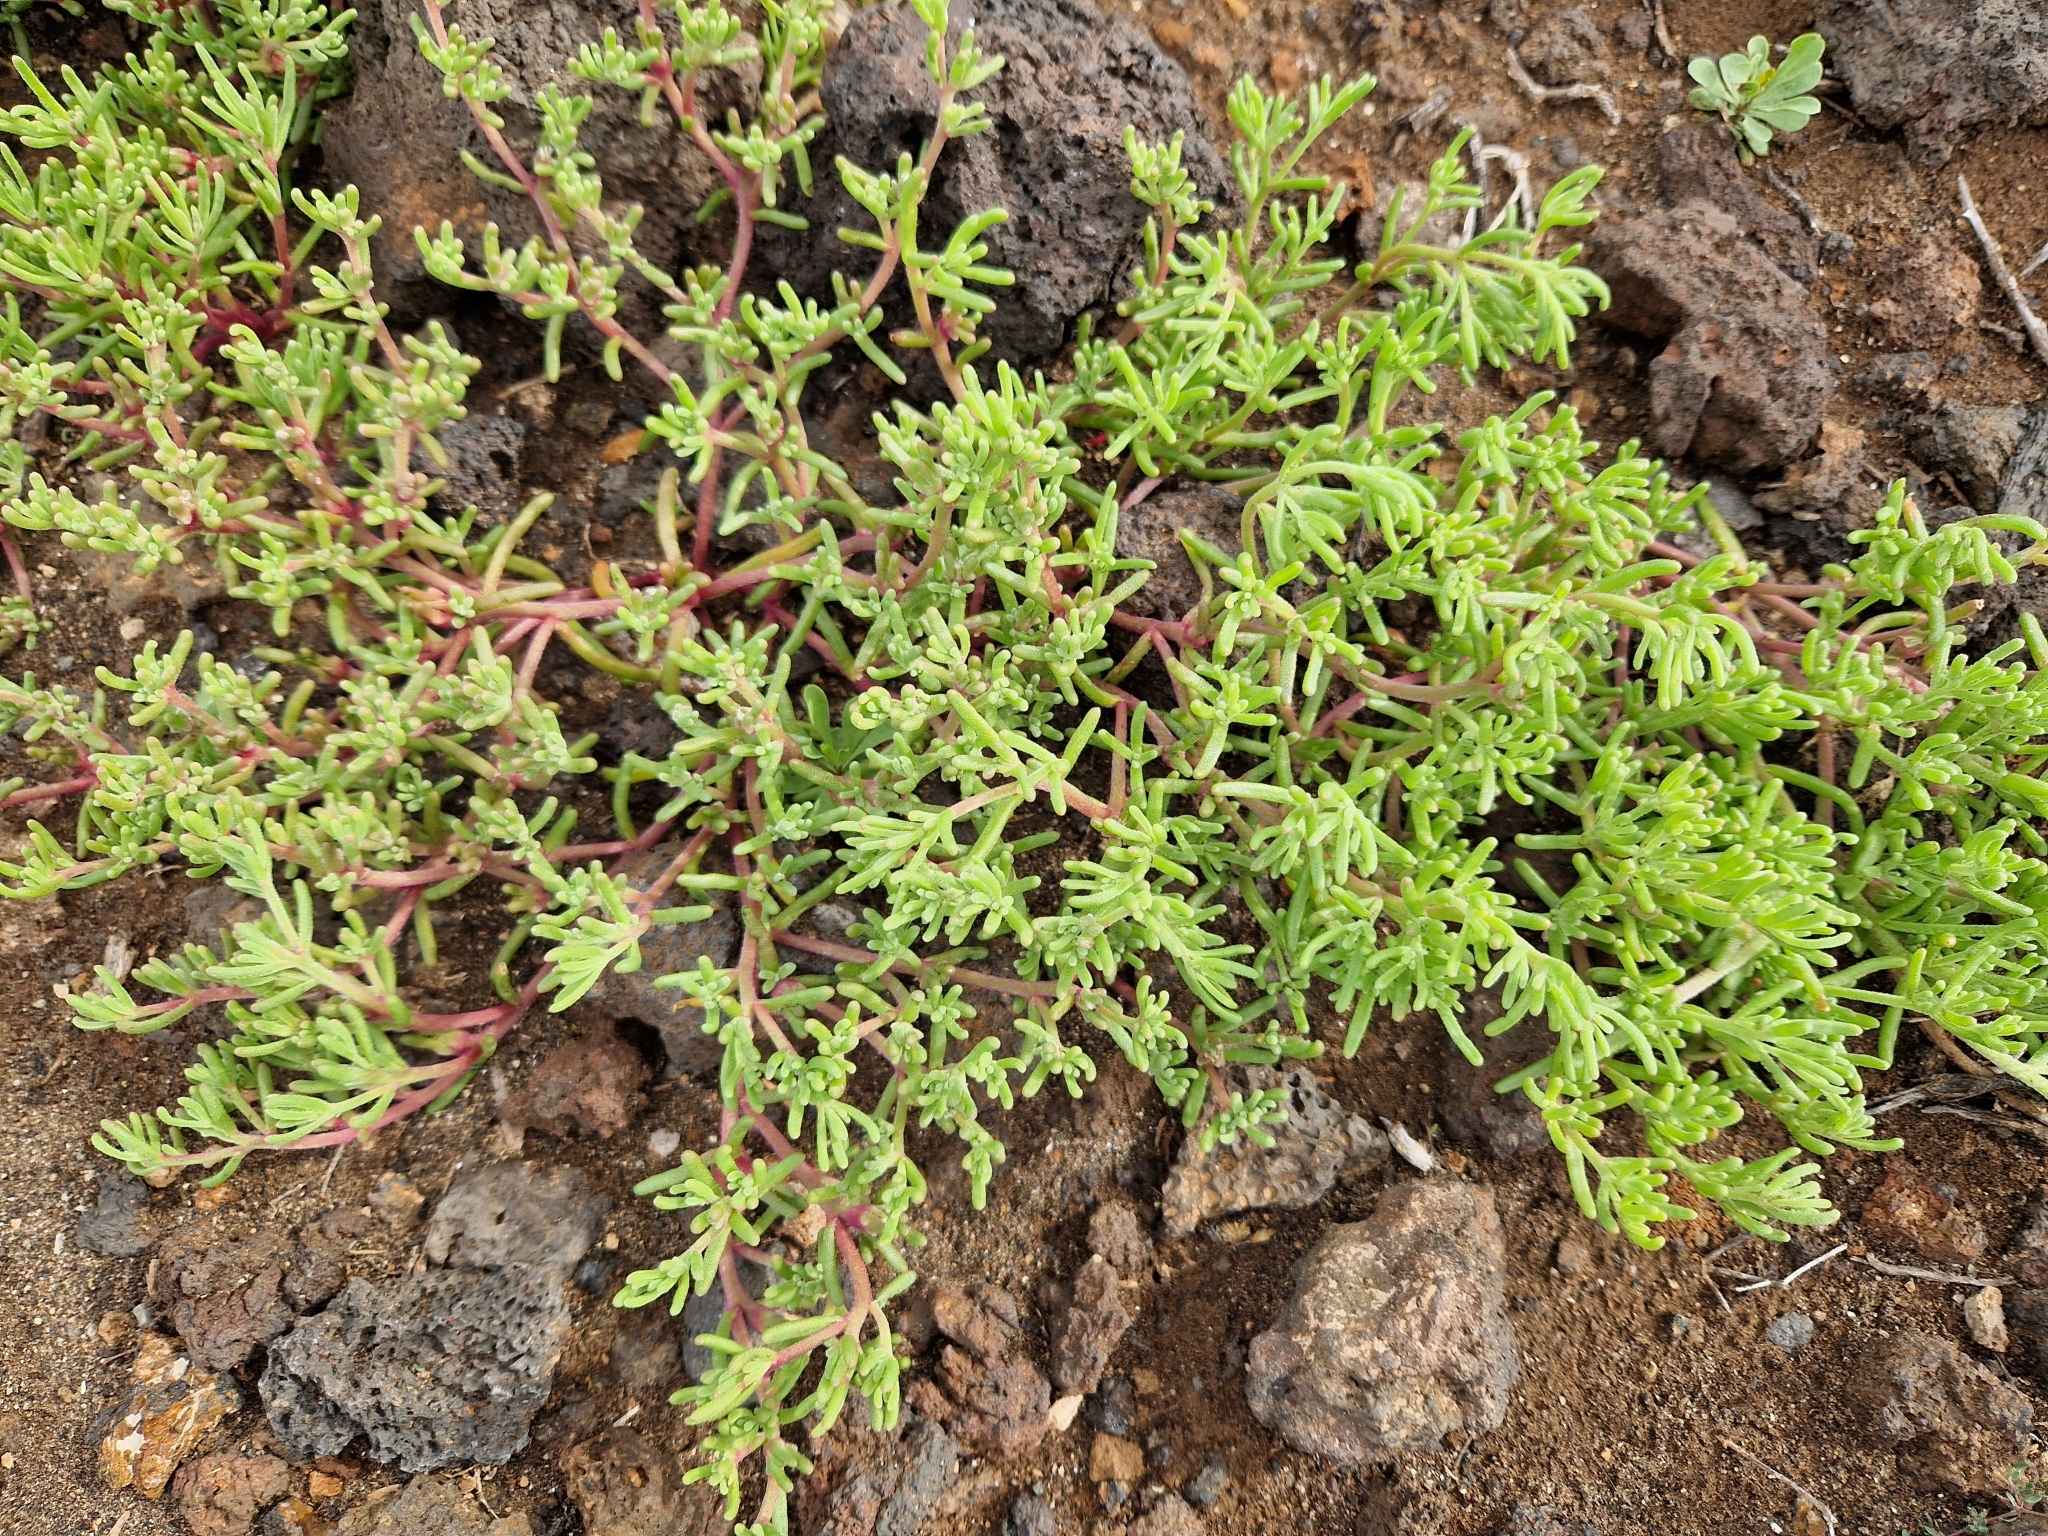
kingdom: Plantae
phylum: Tracheophyta
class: Magnoliopsida
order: Caryophyllales
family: Aizoaceae
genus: Mesembryanthemum
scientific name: Mesembryanthemum nodiflorum
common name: Slenderleaf iceplant
